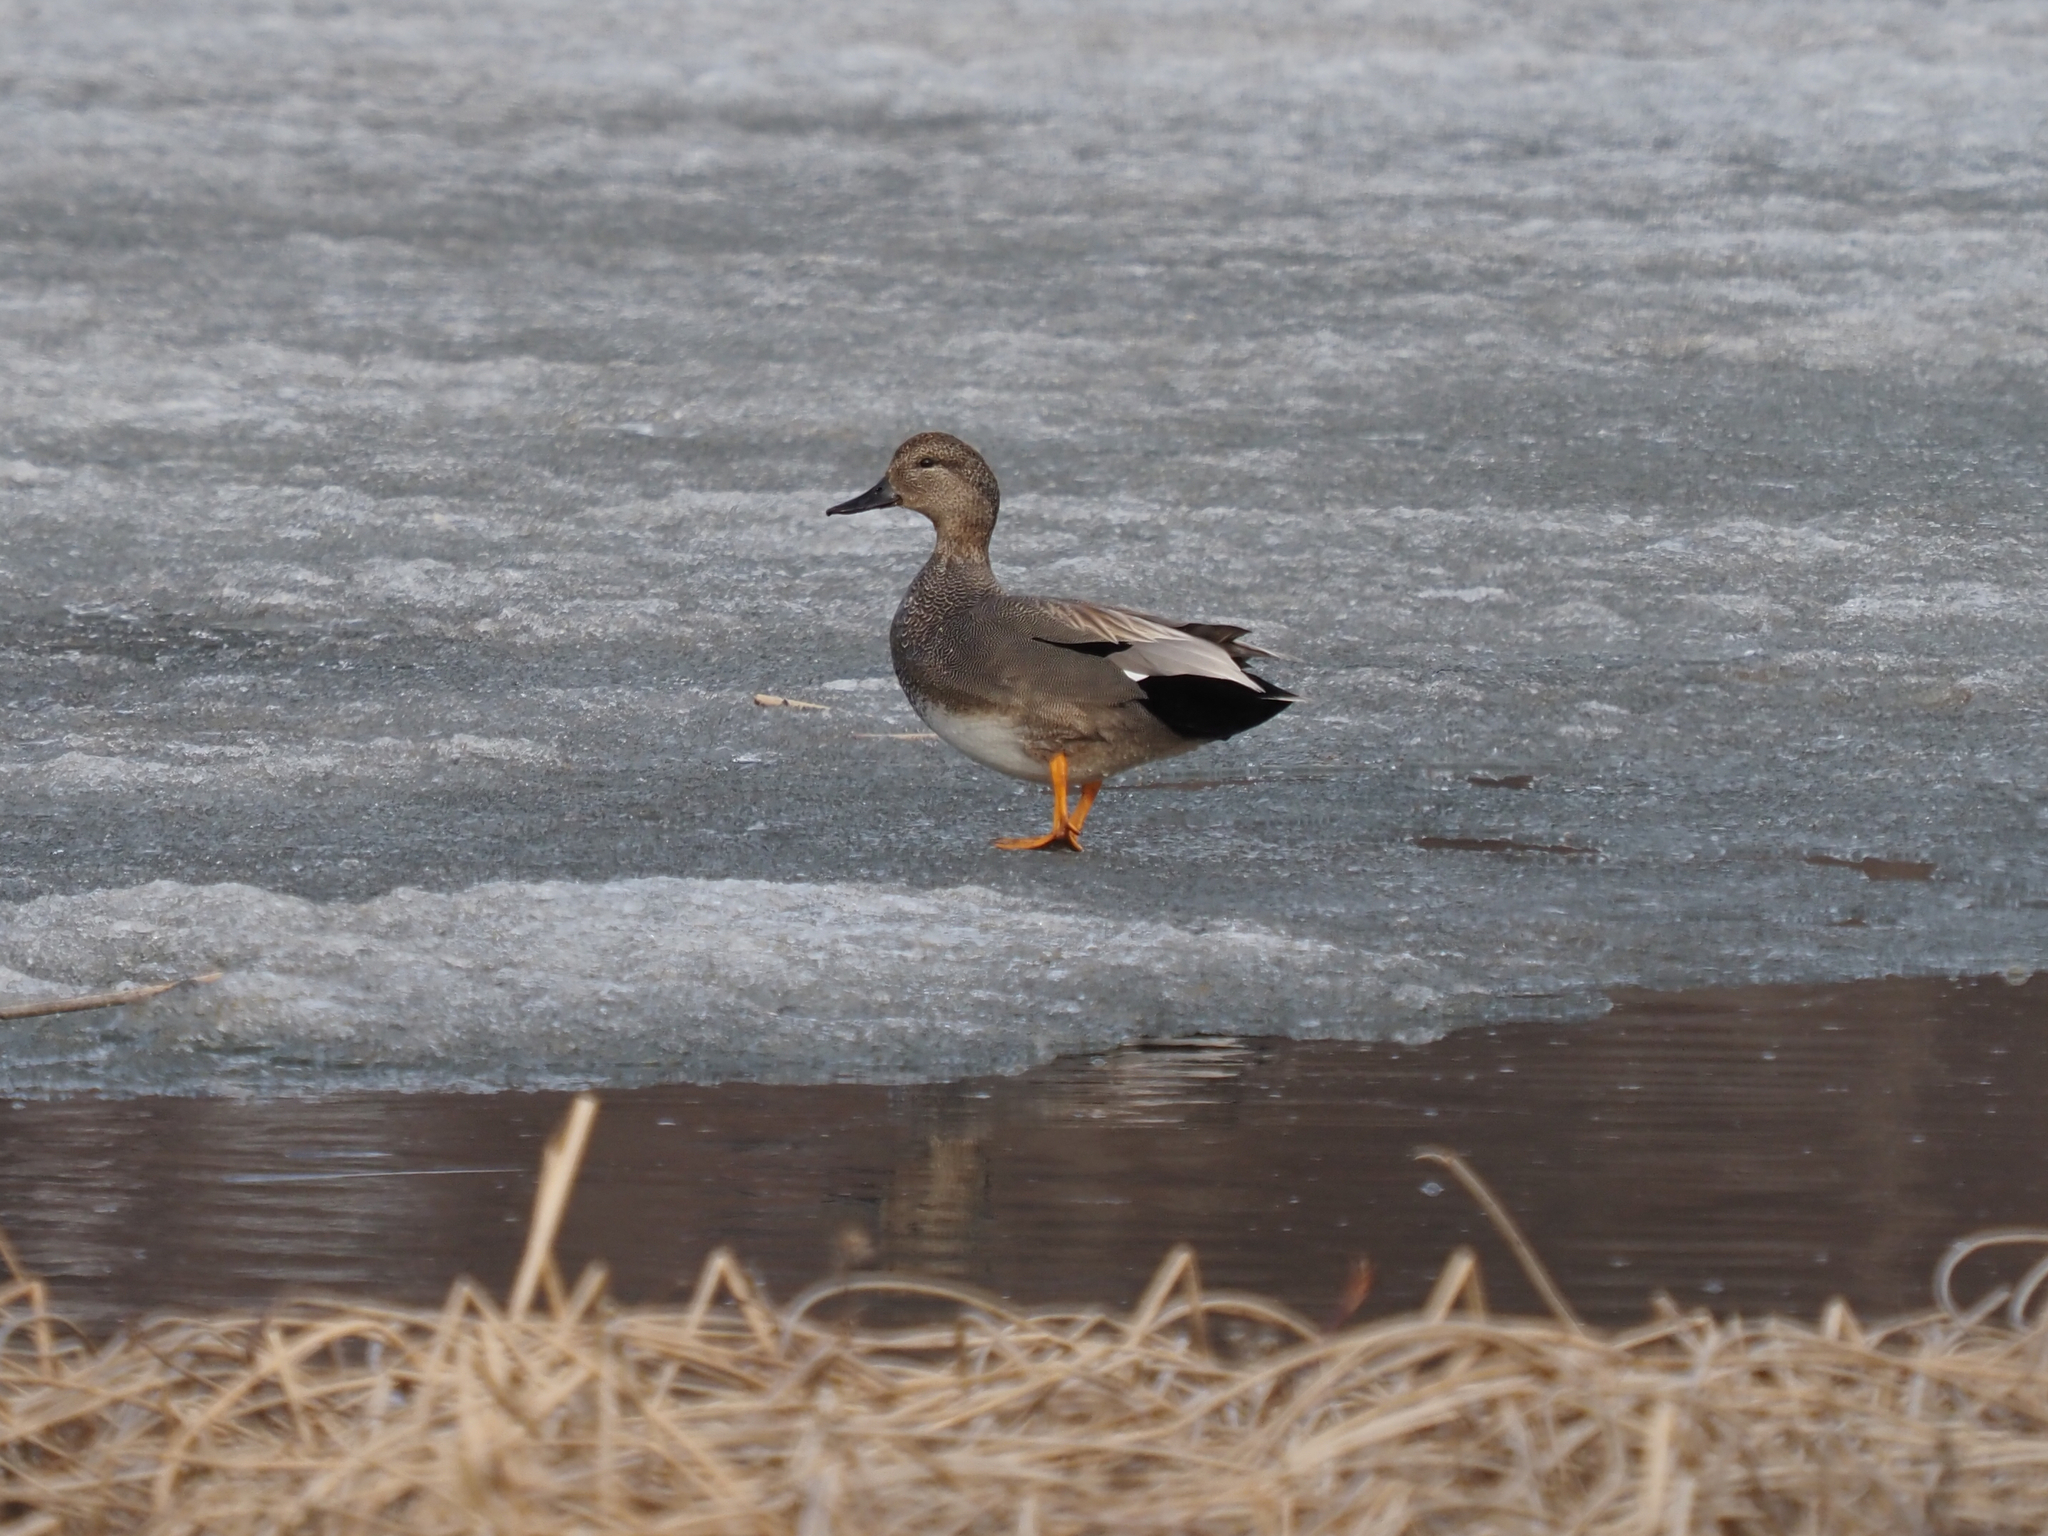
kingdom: Animalia
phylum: Chordata
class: Aves
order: Anseriformes
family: Anatidae
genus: Mareca
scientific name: Mareca strepera
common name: Gadwall
